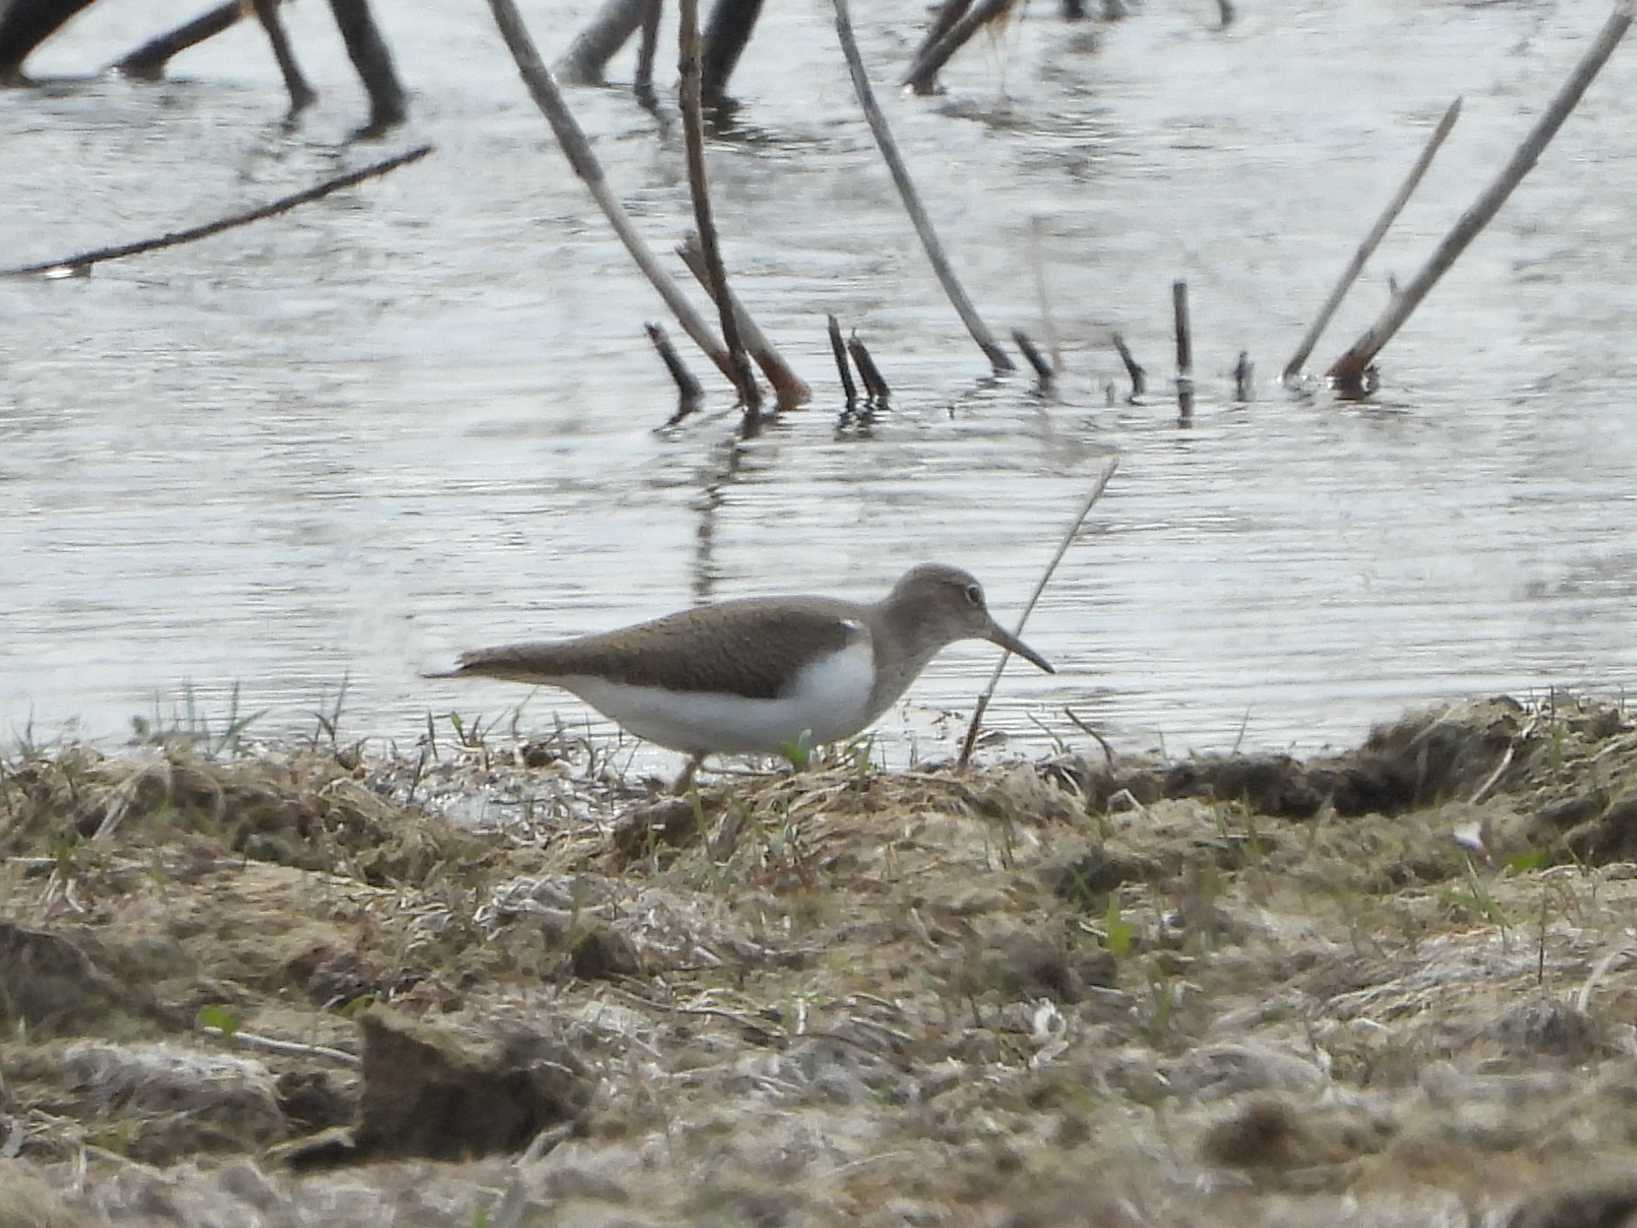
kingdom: Animalia
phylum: Chordata
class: Aves
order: Charadriiformes
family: Scolopacidae
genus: Actitis
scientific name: Actitis hypoleucos
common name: Common sandpiper
